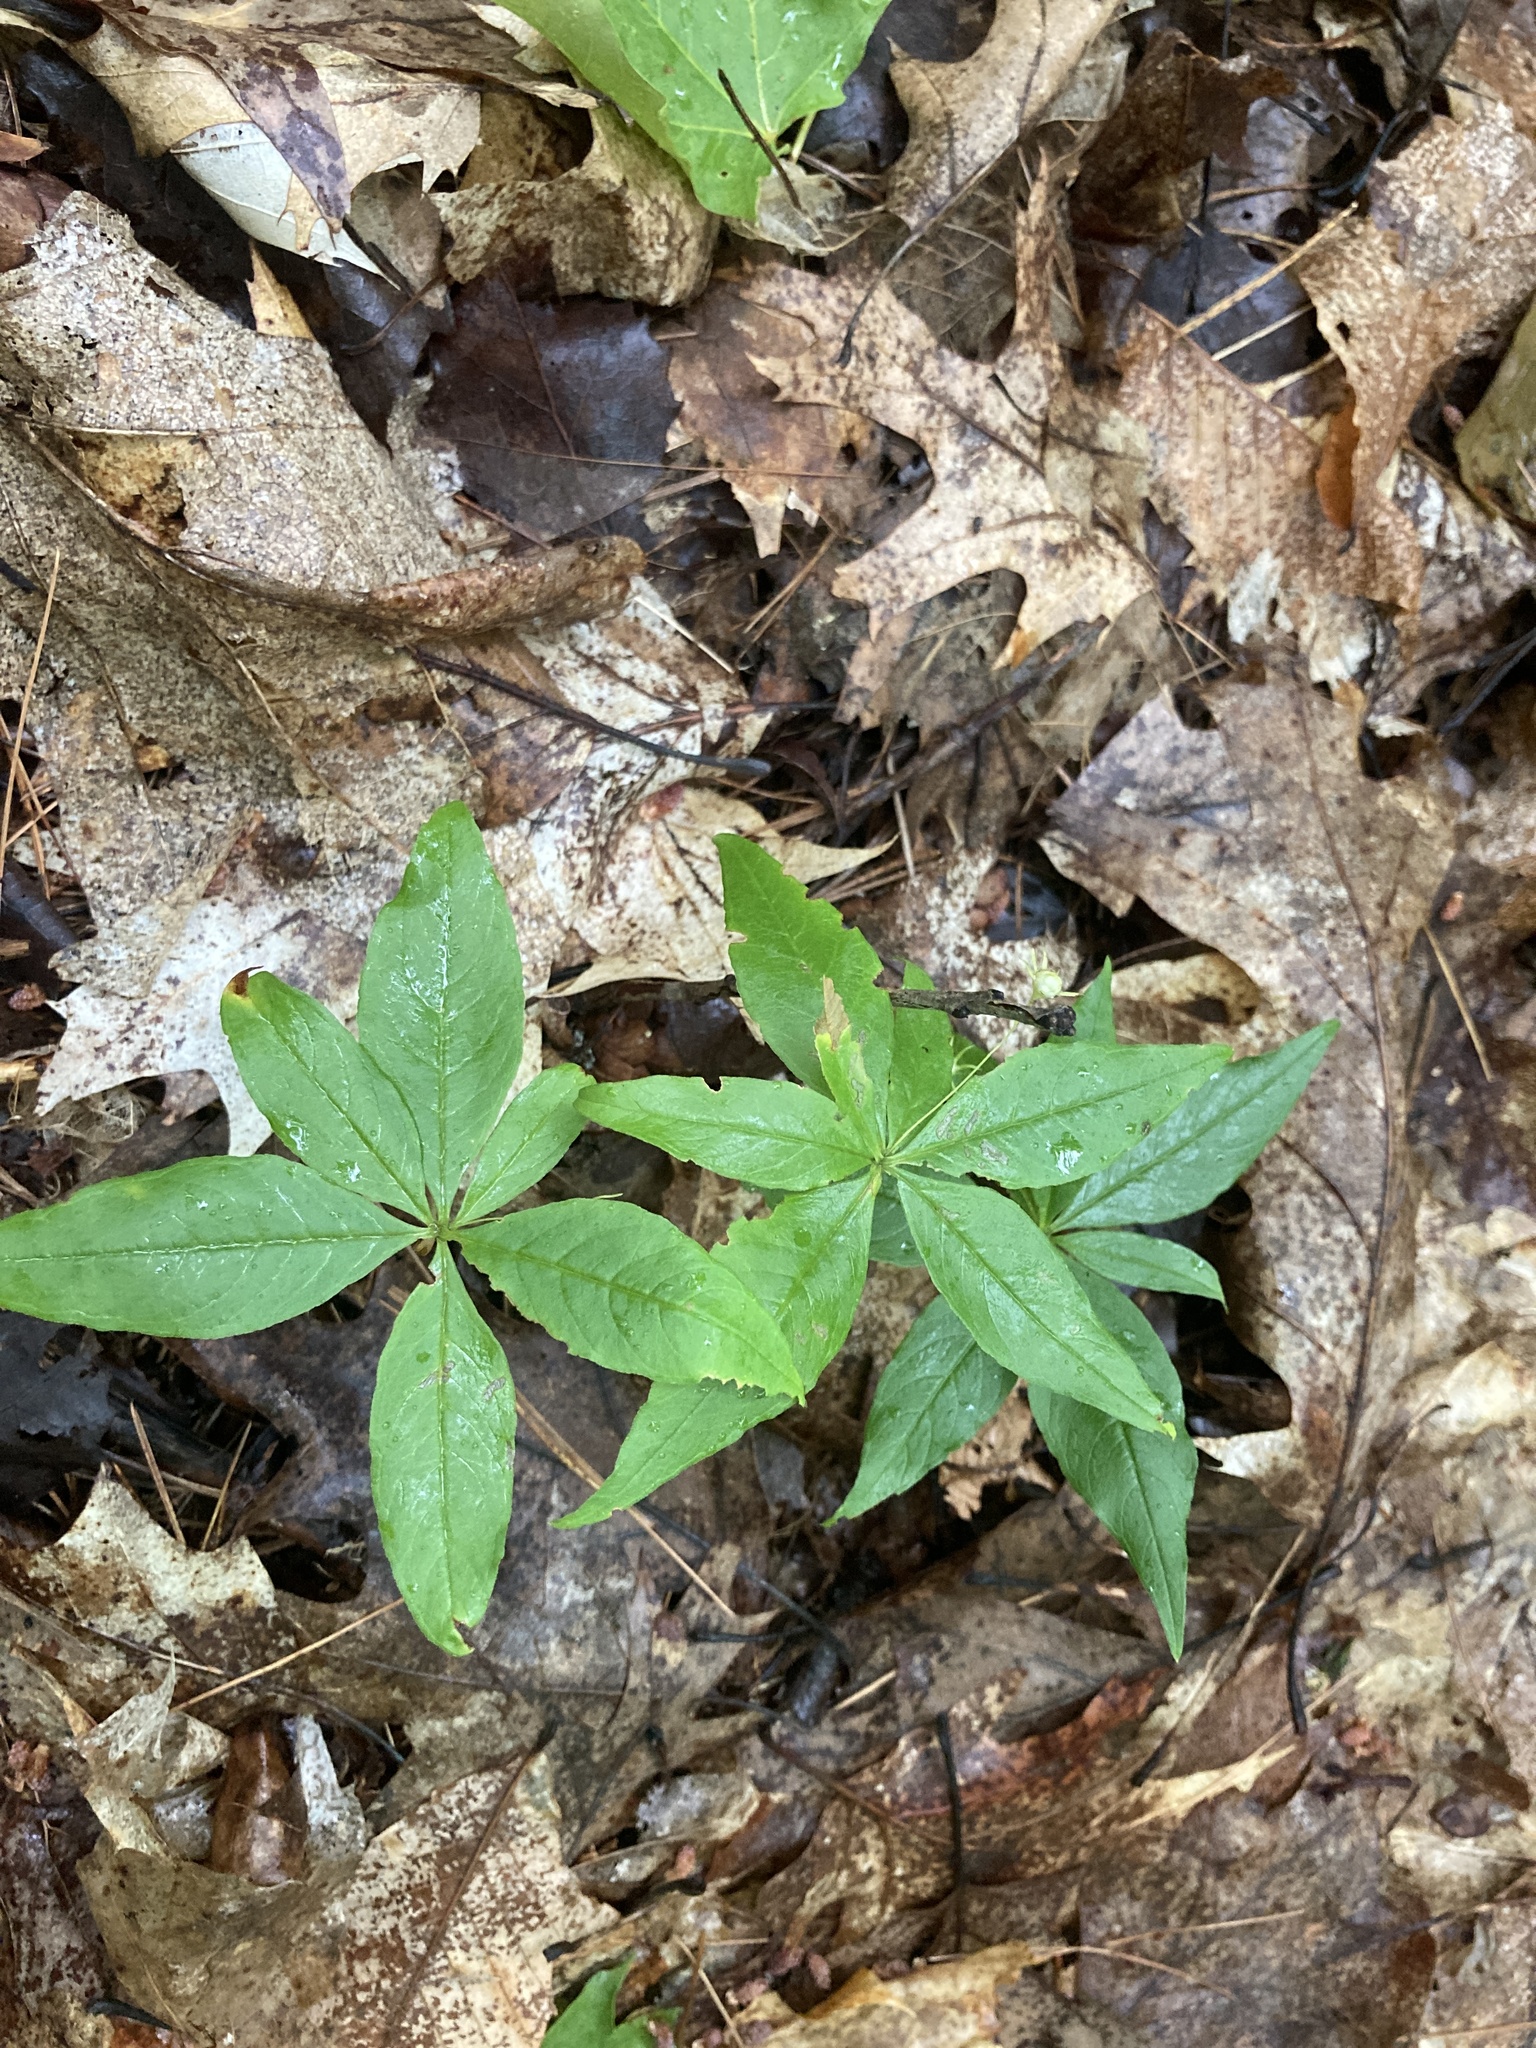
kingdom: Plantae
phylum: Tracheophyta
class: Magnoliopsida
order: Ericales
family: Primulaceae
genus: Lysimachia
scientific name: Lysimachia borealis
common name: American starflower
